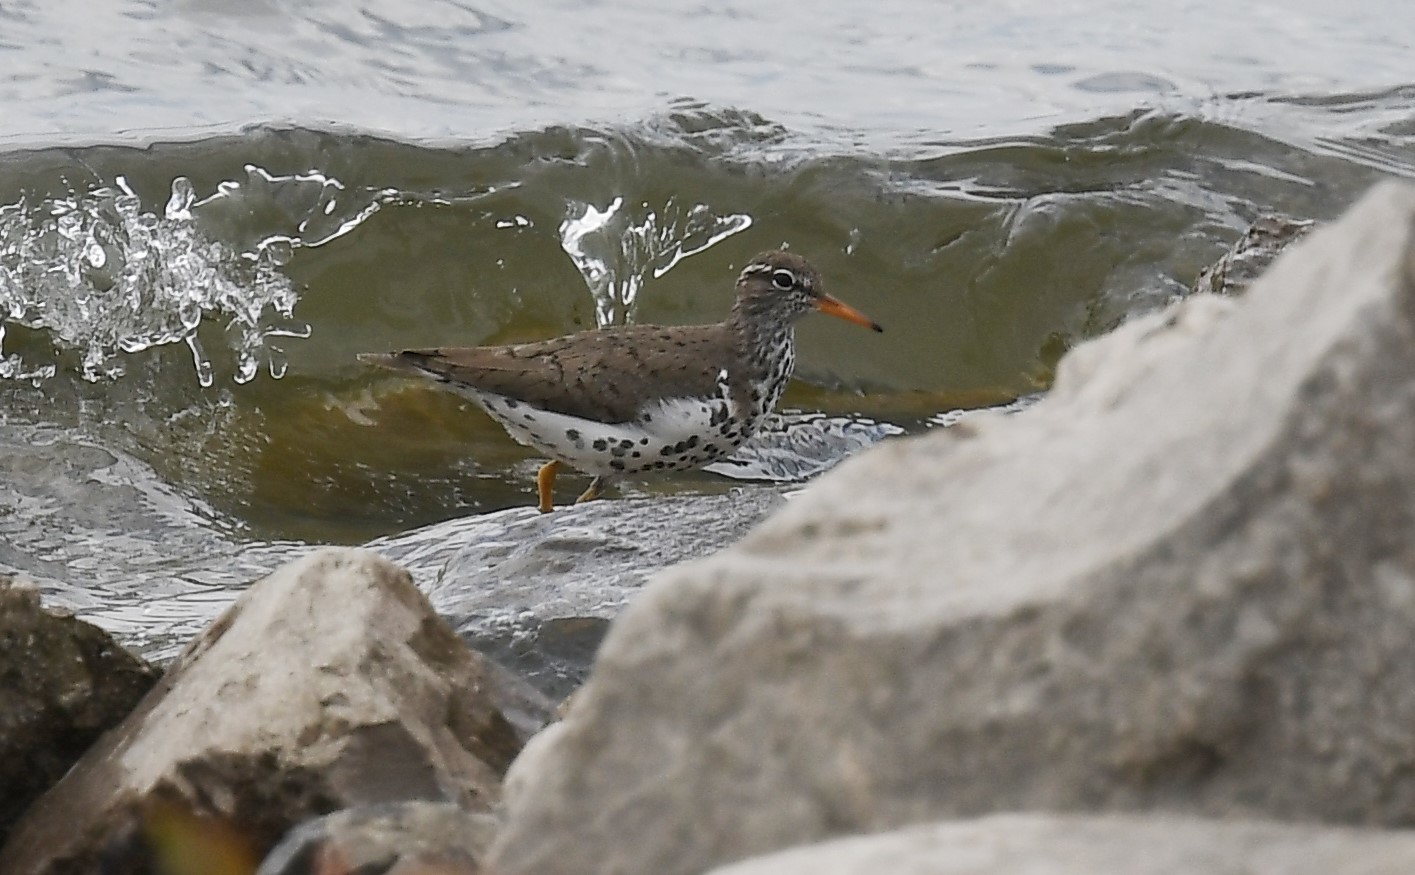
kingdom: Animalia
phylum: Chordata
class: Aves
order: Charadriiformes
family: Scolopacidae
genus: Actitis
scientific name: Actitis macularius
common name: Spotted sandpiper
